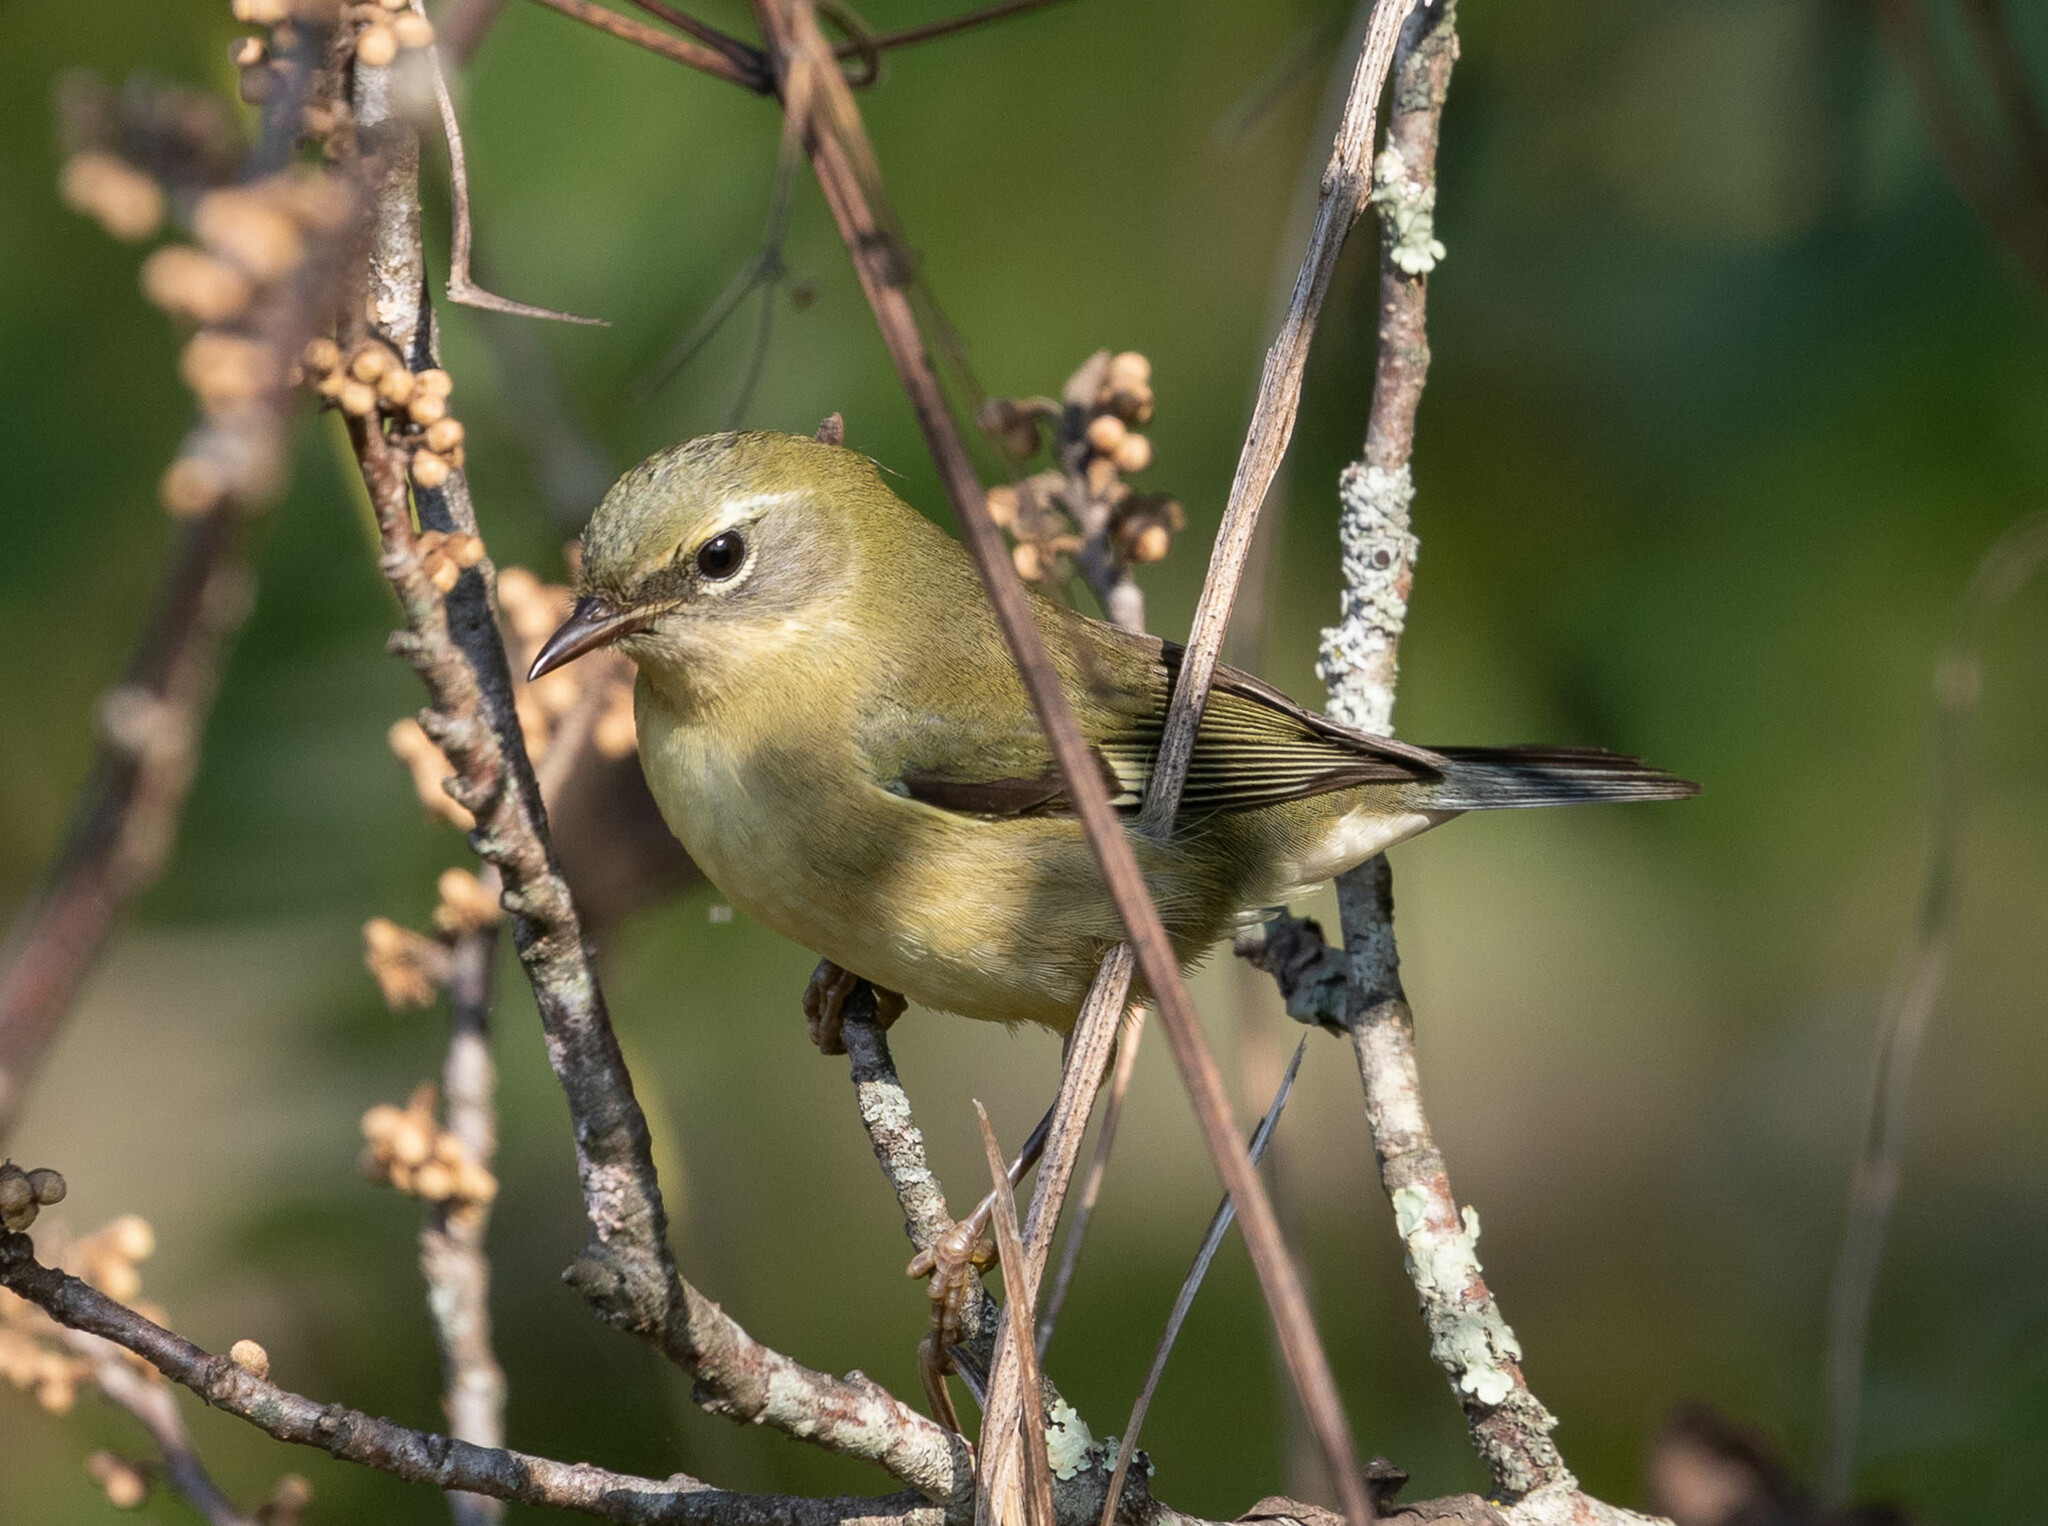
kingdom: Animalia
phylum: Chordata
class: Aves
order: Passeriformes
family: Parulidae
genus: Setophaga
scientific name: Setophaga caerulescens
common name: Black-throated blue warbler
